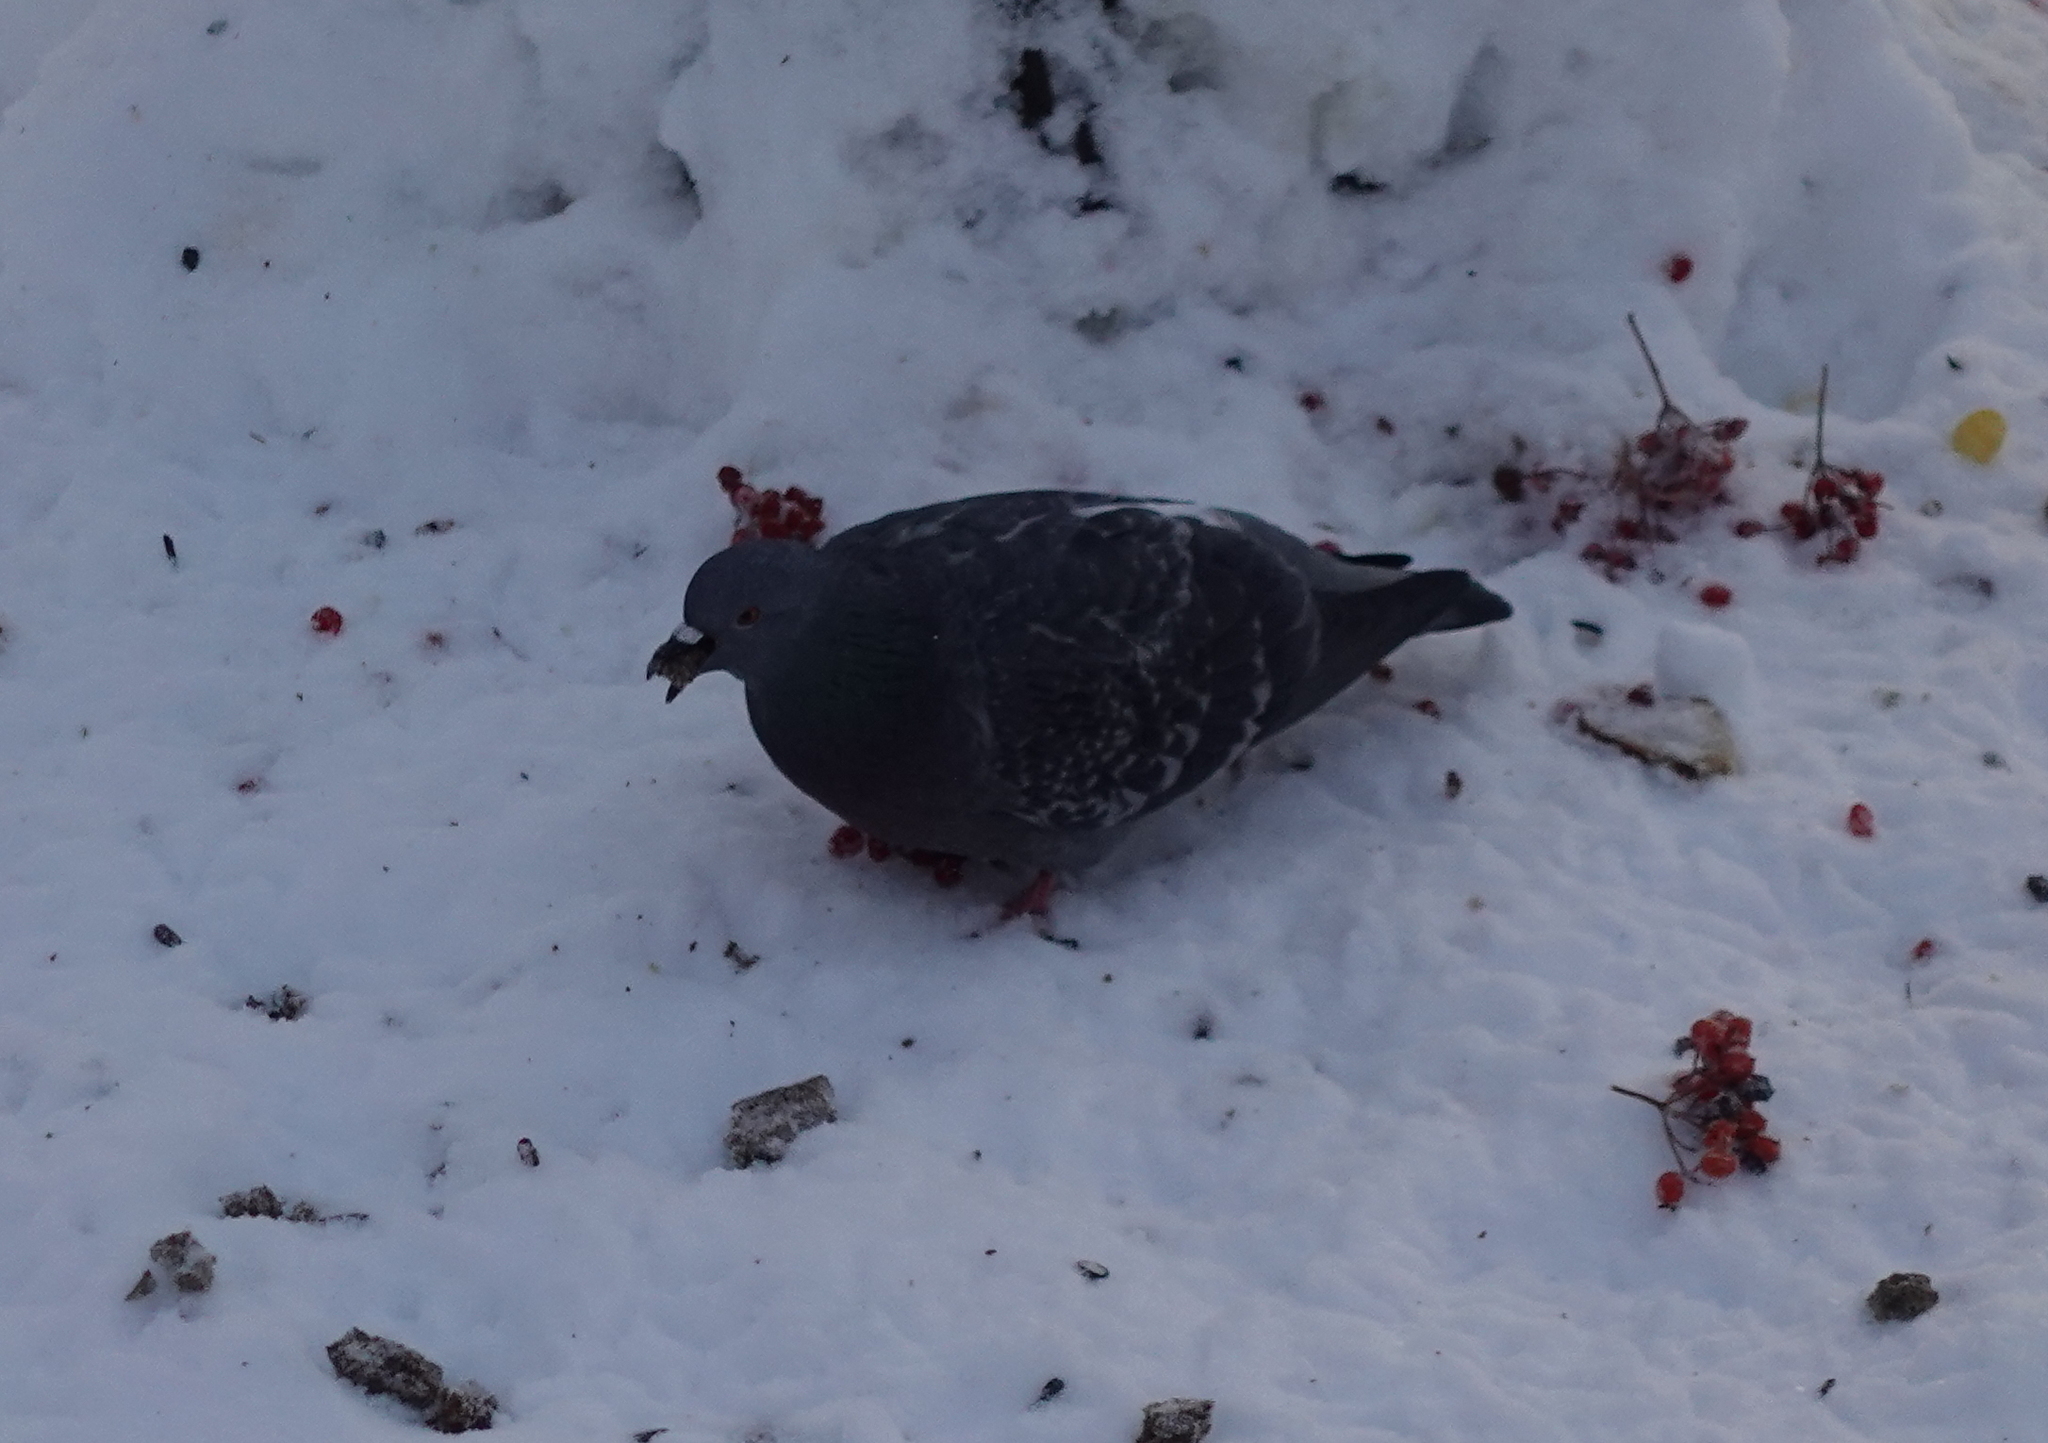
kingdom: Animalia
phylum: Chordata
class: Aves
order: Columbiformes
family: Columbidae
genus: Columba
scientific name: Columba livia
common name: Rock pigeon
